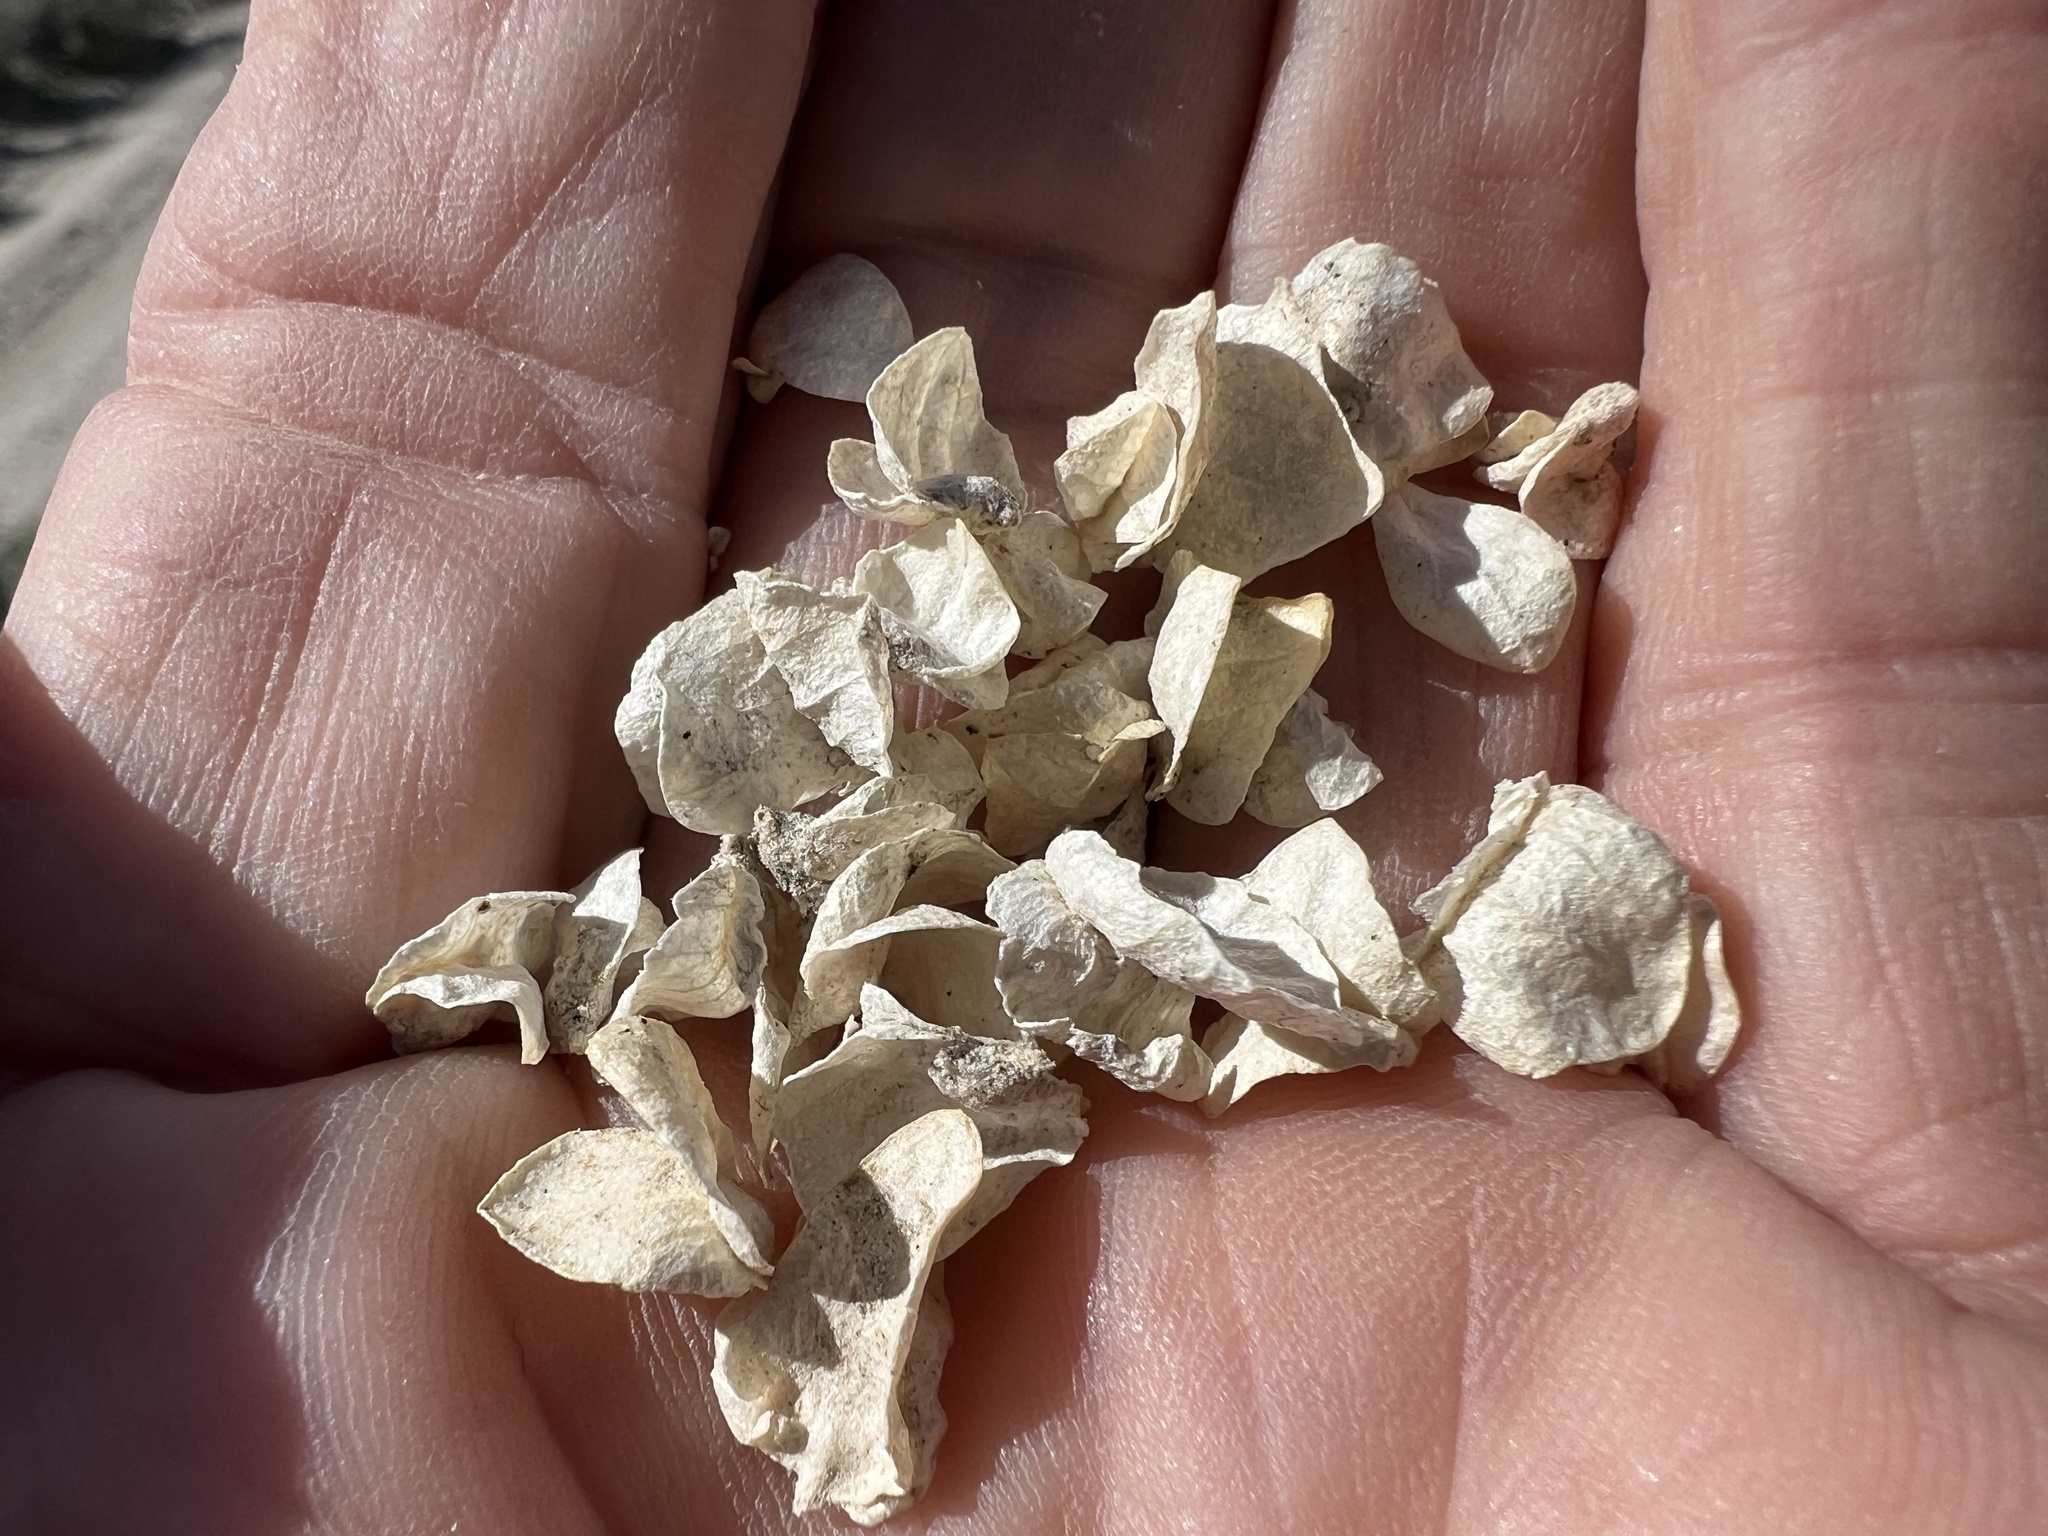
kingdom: Plantae
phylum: Tracheophyta
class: Magnoliopsida
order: Caryophyllales
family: Amaranthaceae
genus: Atriplex
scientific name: Atriplex confertifolia
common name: Shadscale
